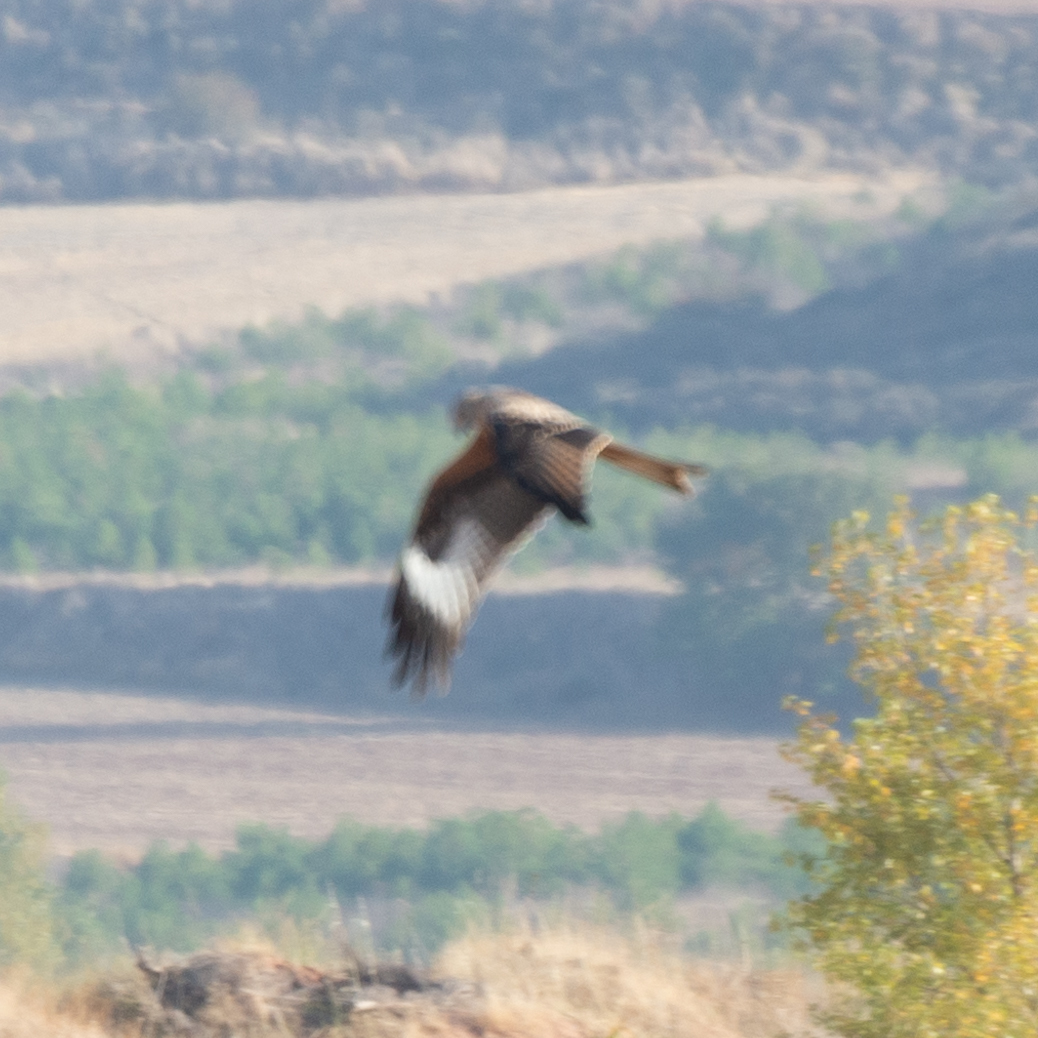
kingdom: Animalia
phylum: Chordata
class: Aves
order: Accipitriformes
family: Accipitridae
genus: Milvus
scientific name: Milvus milvus
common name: Red kite
